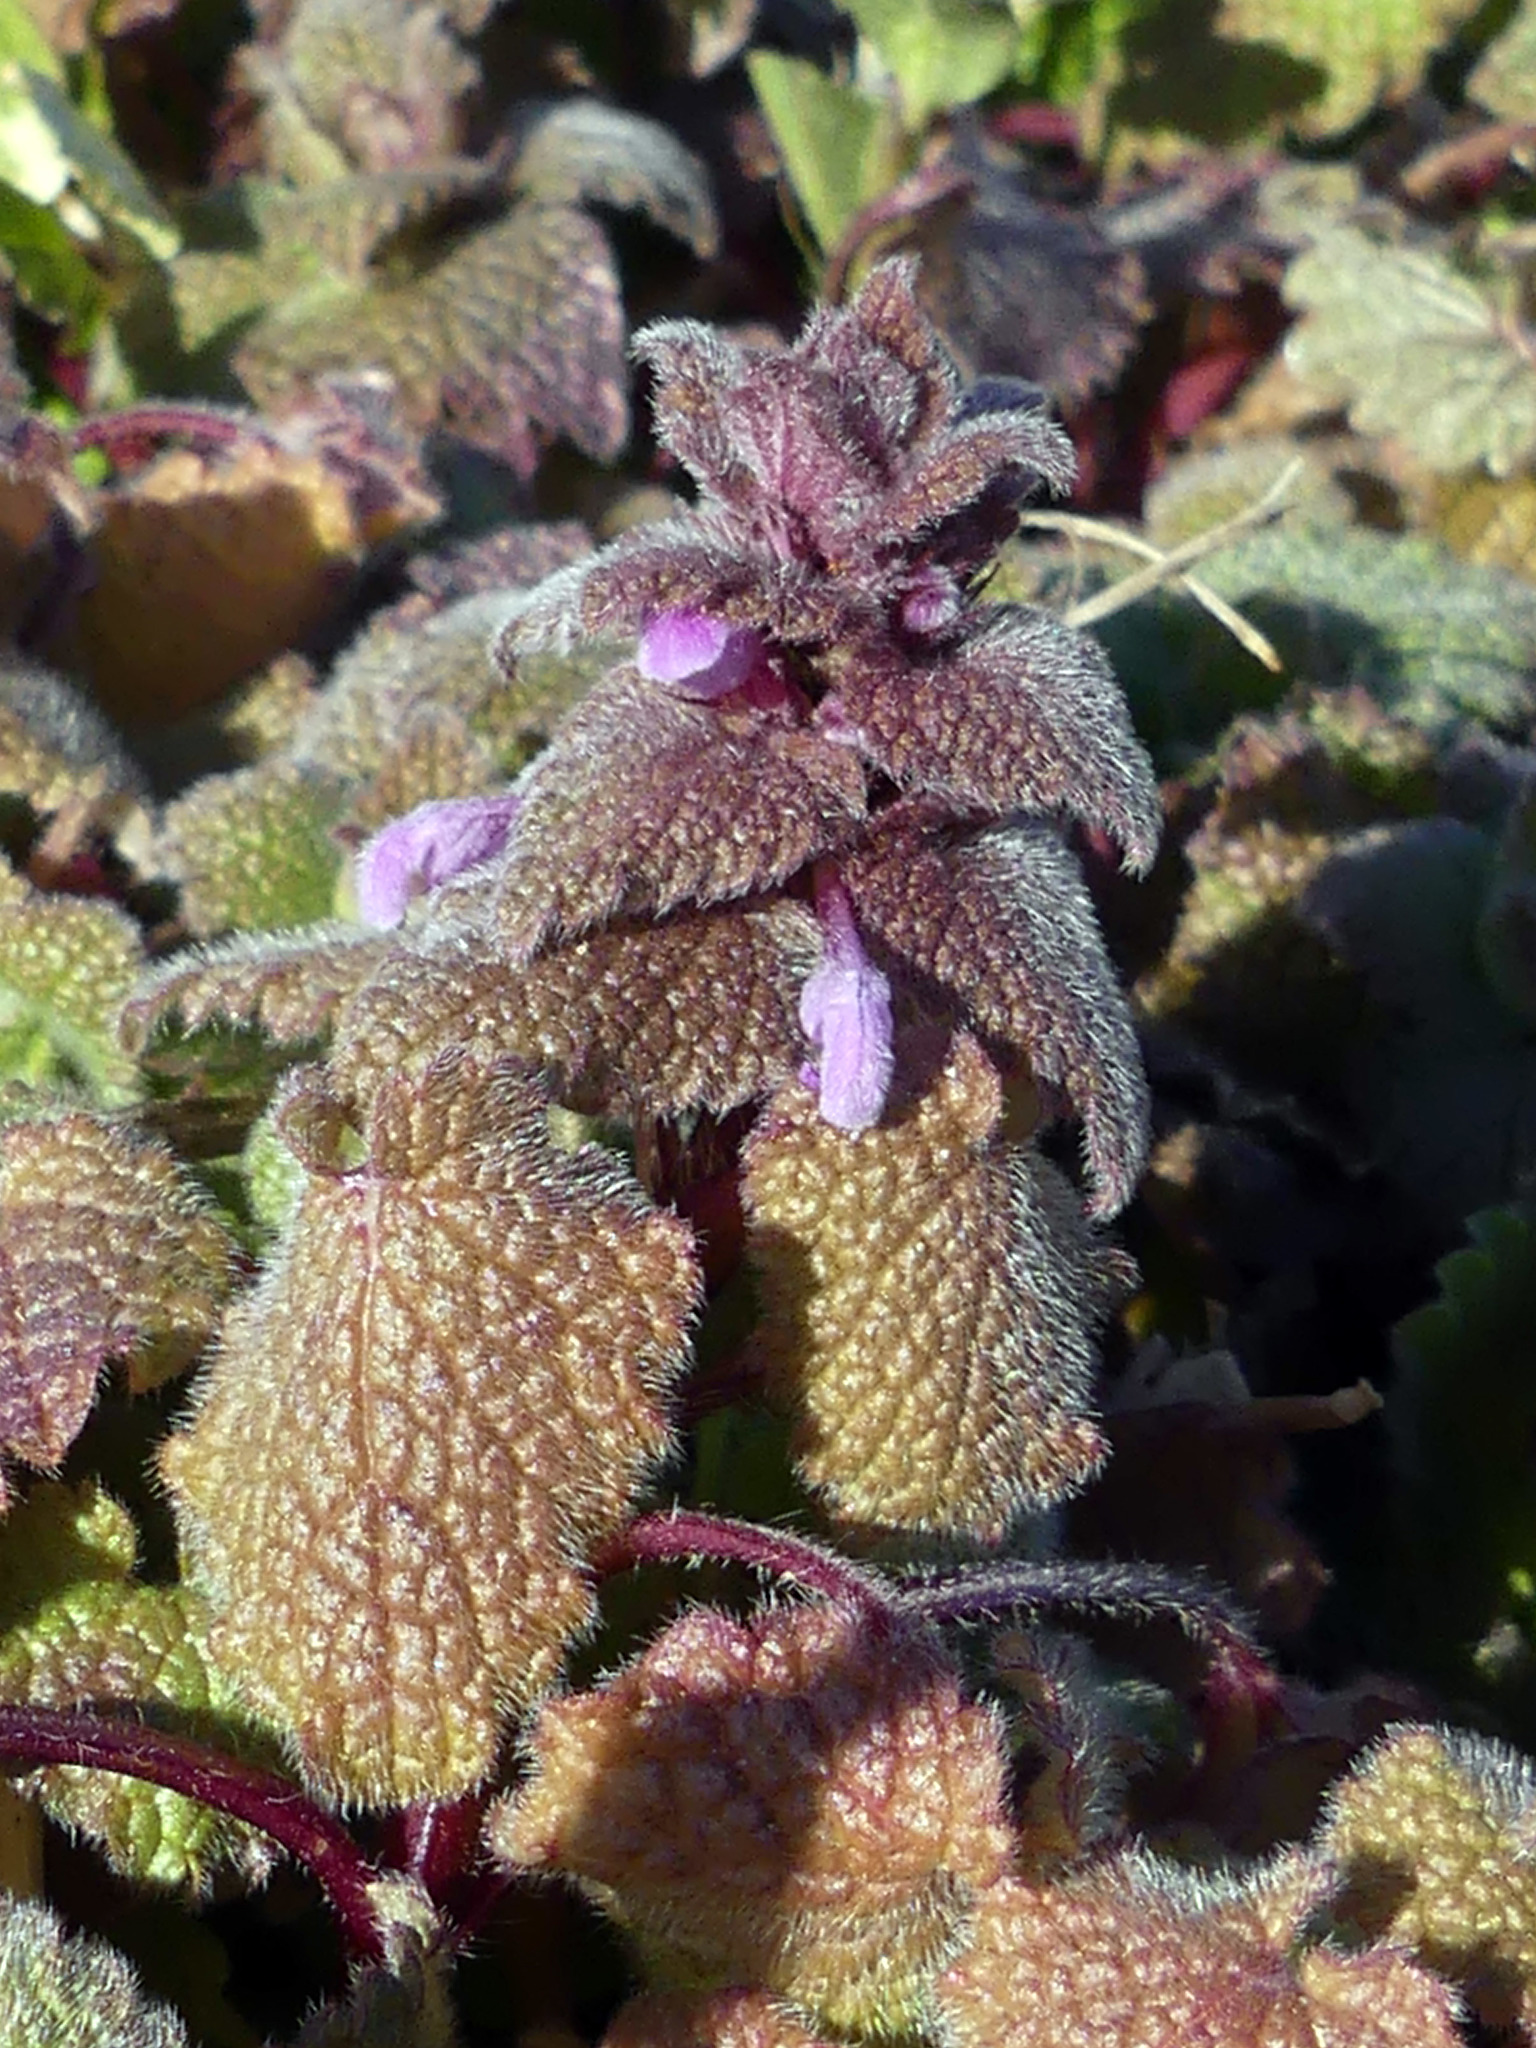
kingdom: Plantae
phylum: Tracheophyta
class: Magnoliopsida
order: Lamiales
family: Lamiaceae
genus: Lamium
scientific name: Lamium purpureum
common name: Red dead-nettle
